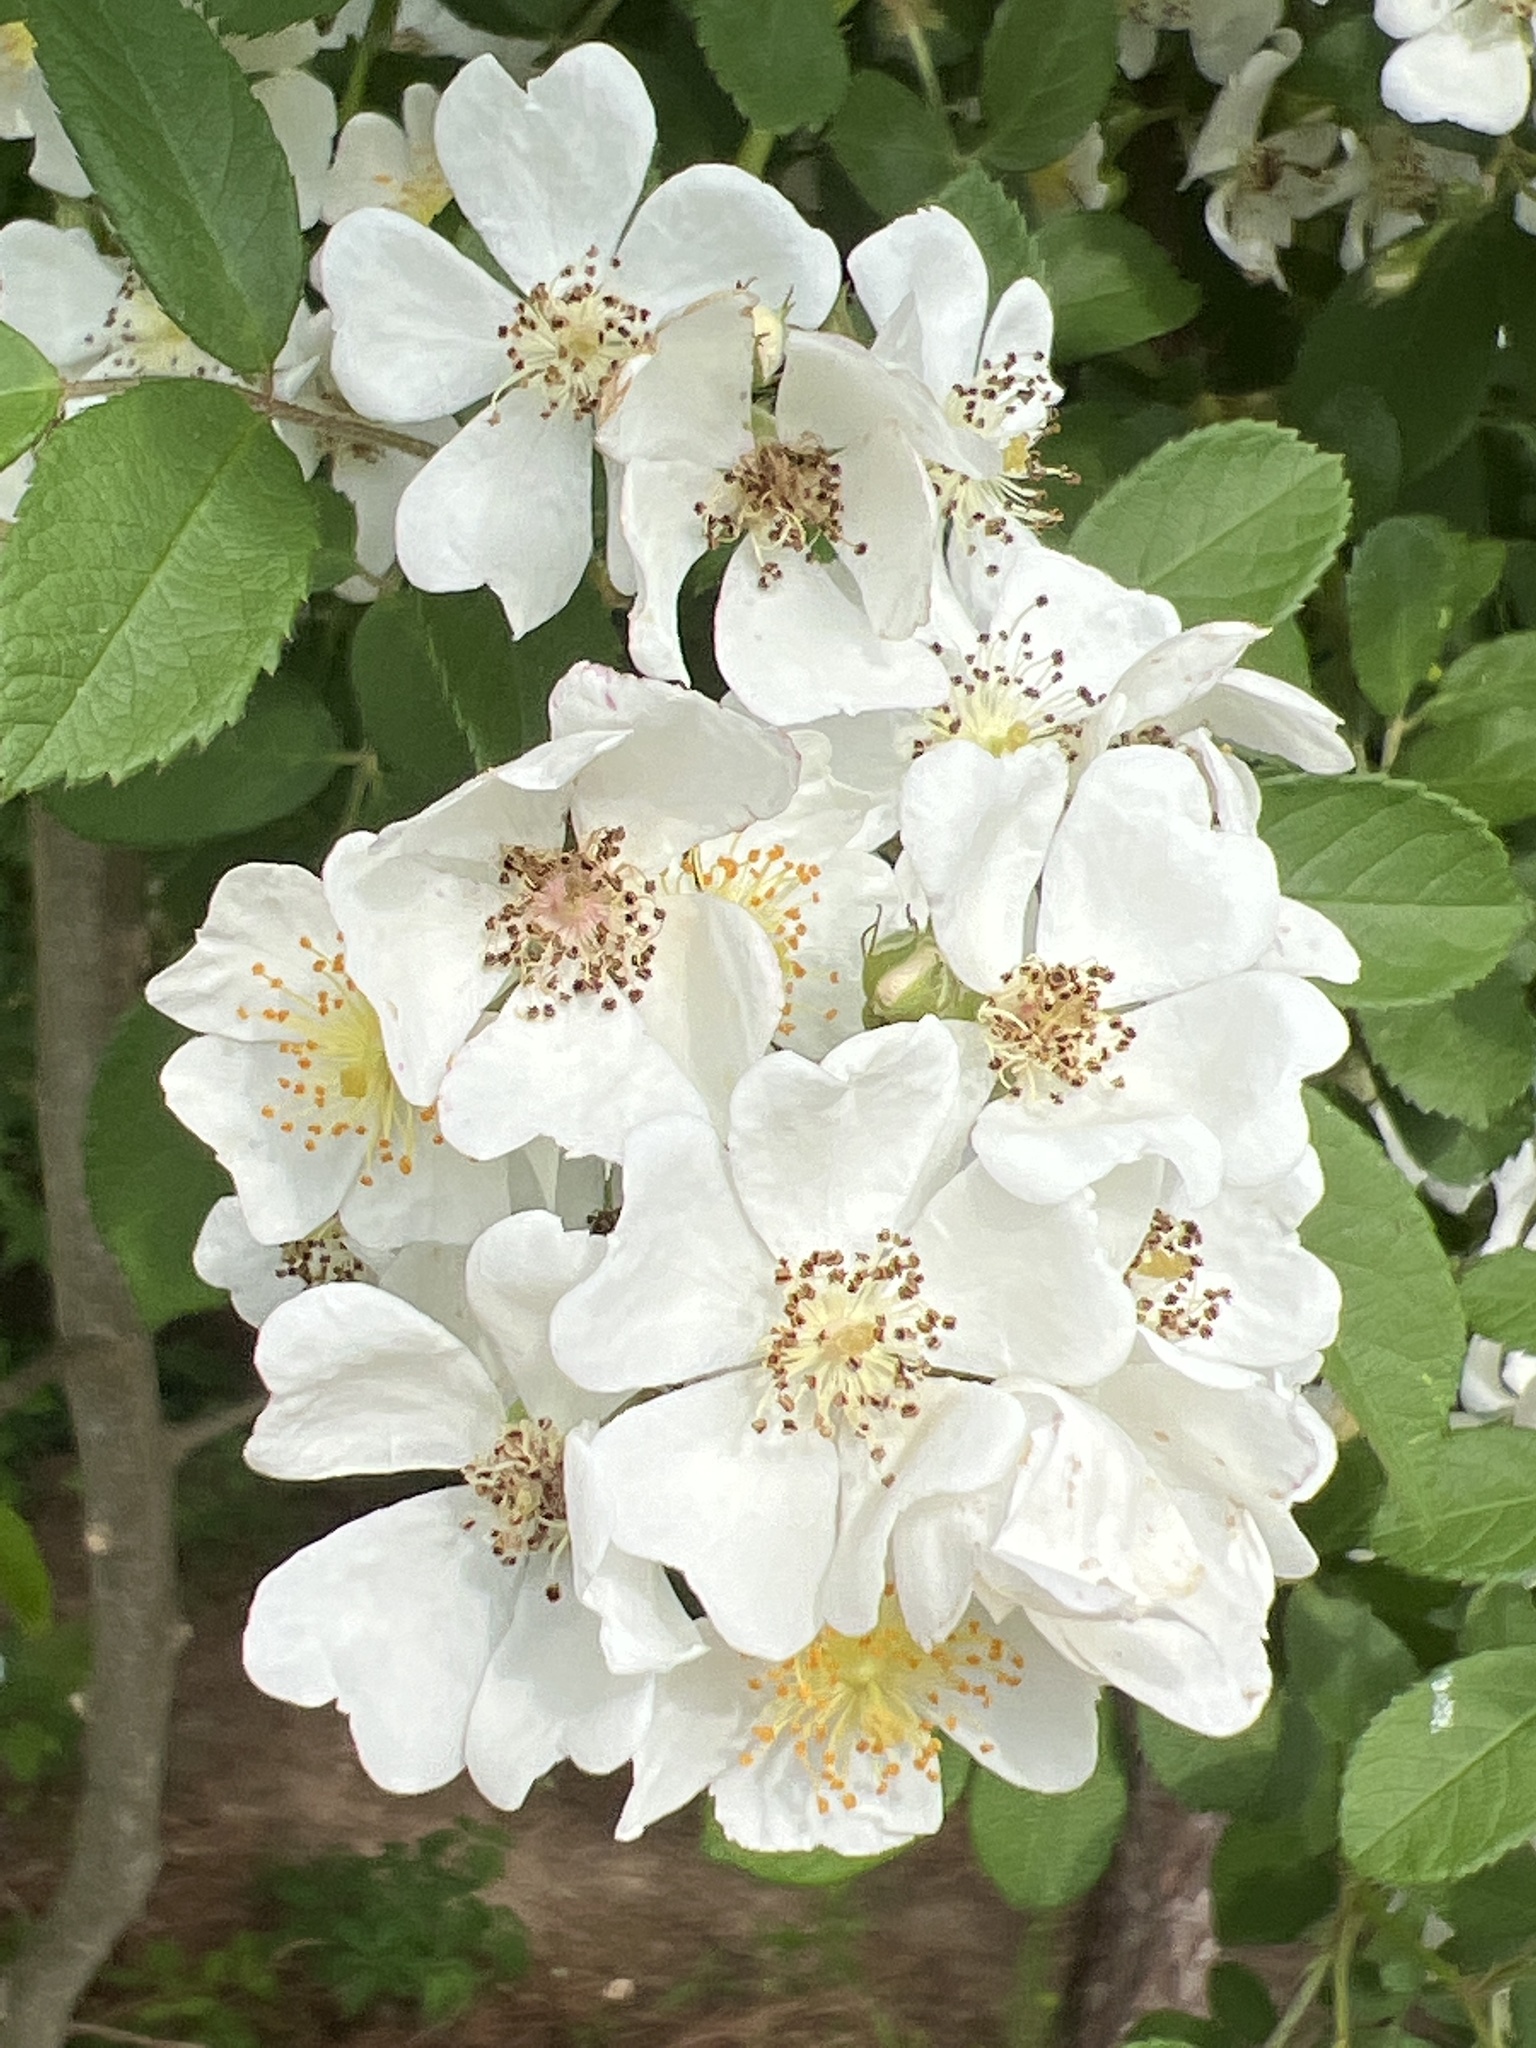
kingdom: Plantae
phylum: Tracheophyta
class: Magnoliopsida
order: Rosales
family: Rosaceae
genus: Rosa
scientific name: Rosa multiflora
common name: Multiflora rose
